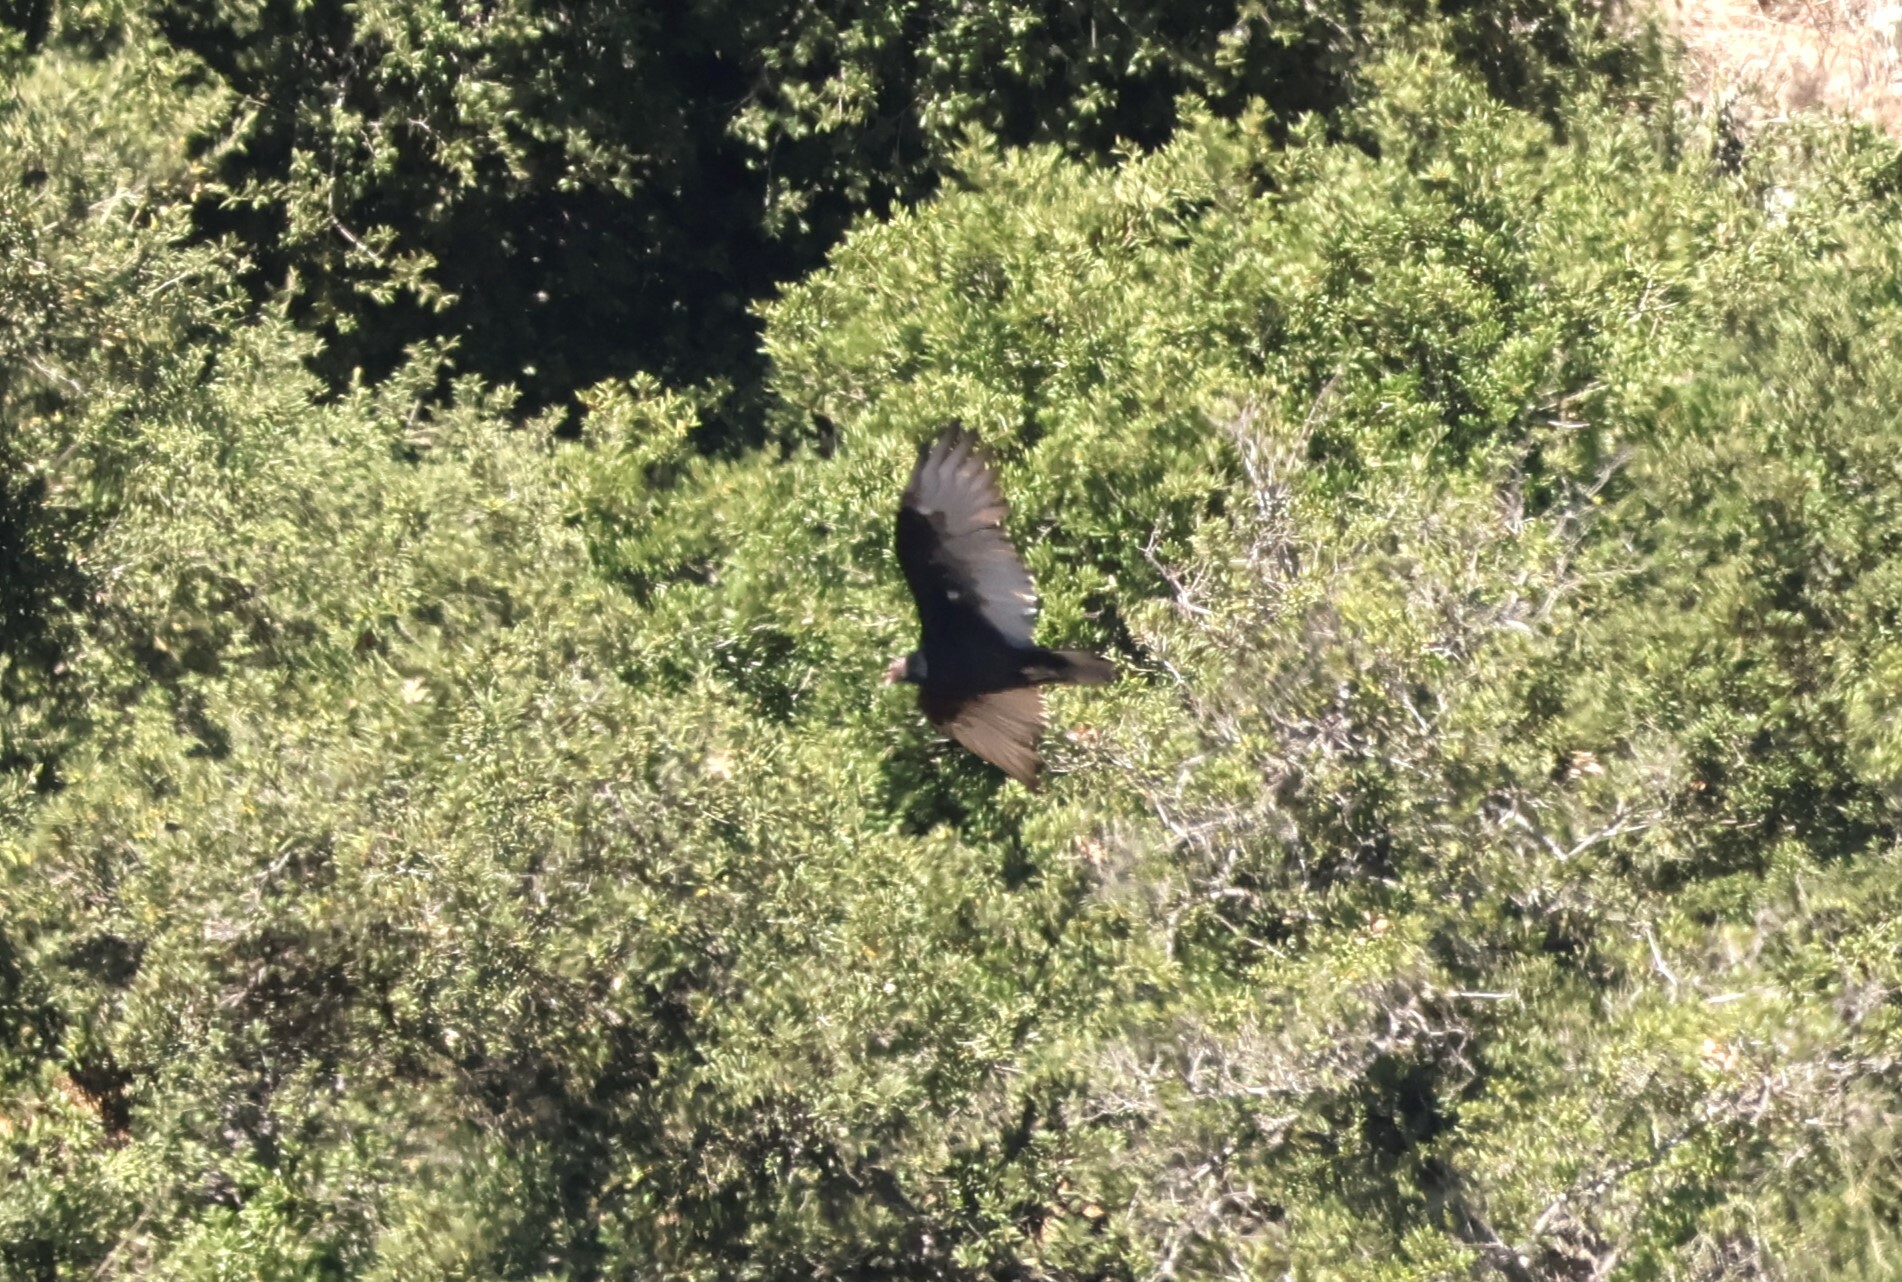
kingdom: Animalia
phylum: Chordata
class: Aves
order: Accipitriformes
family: Cathartidae
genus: Cathartes
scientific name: Cathartes aura
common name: Turkey vulture
